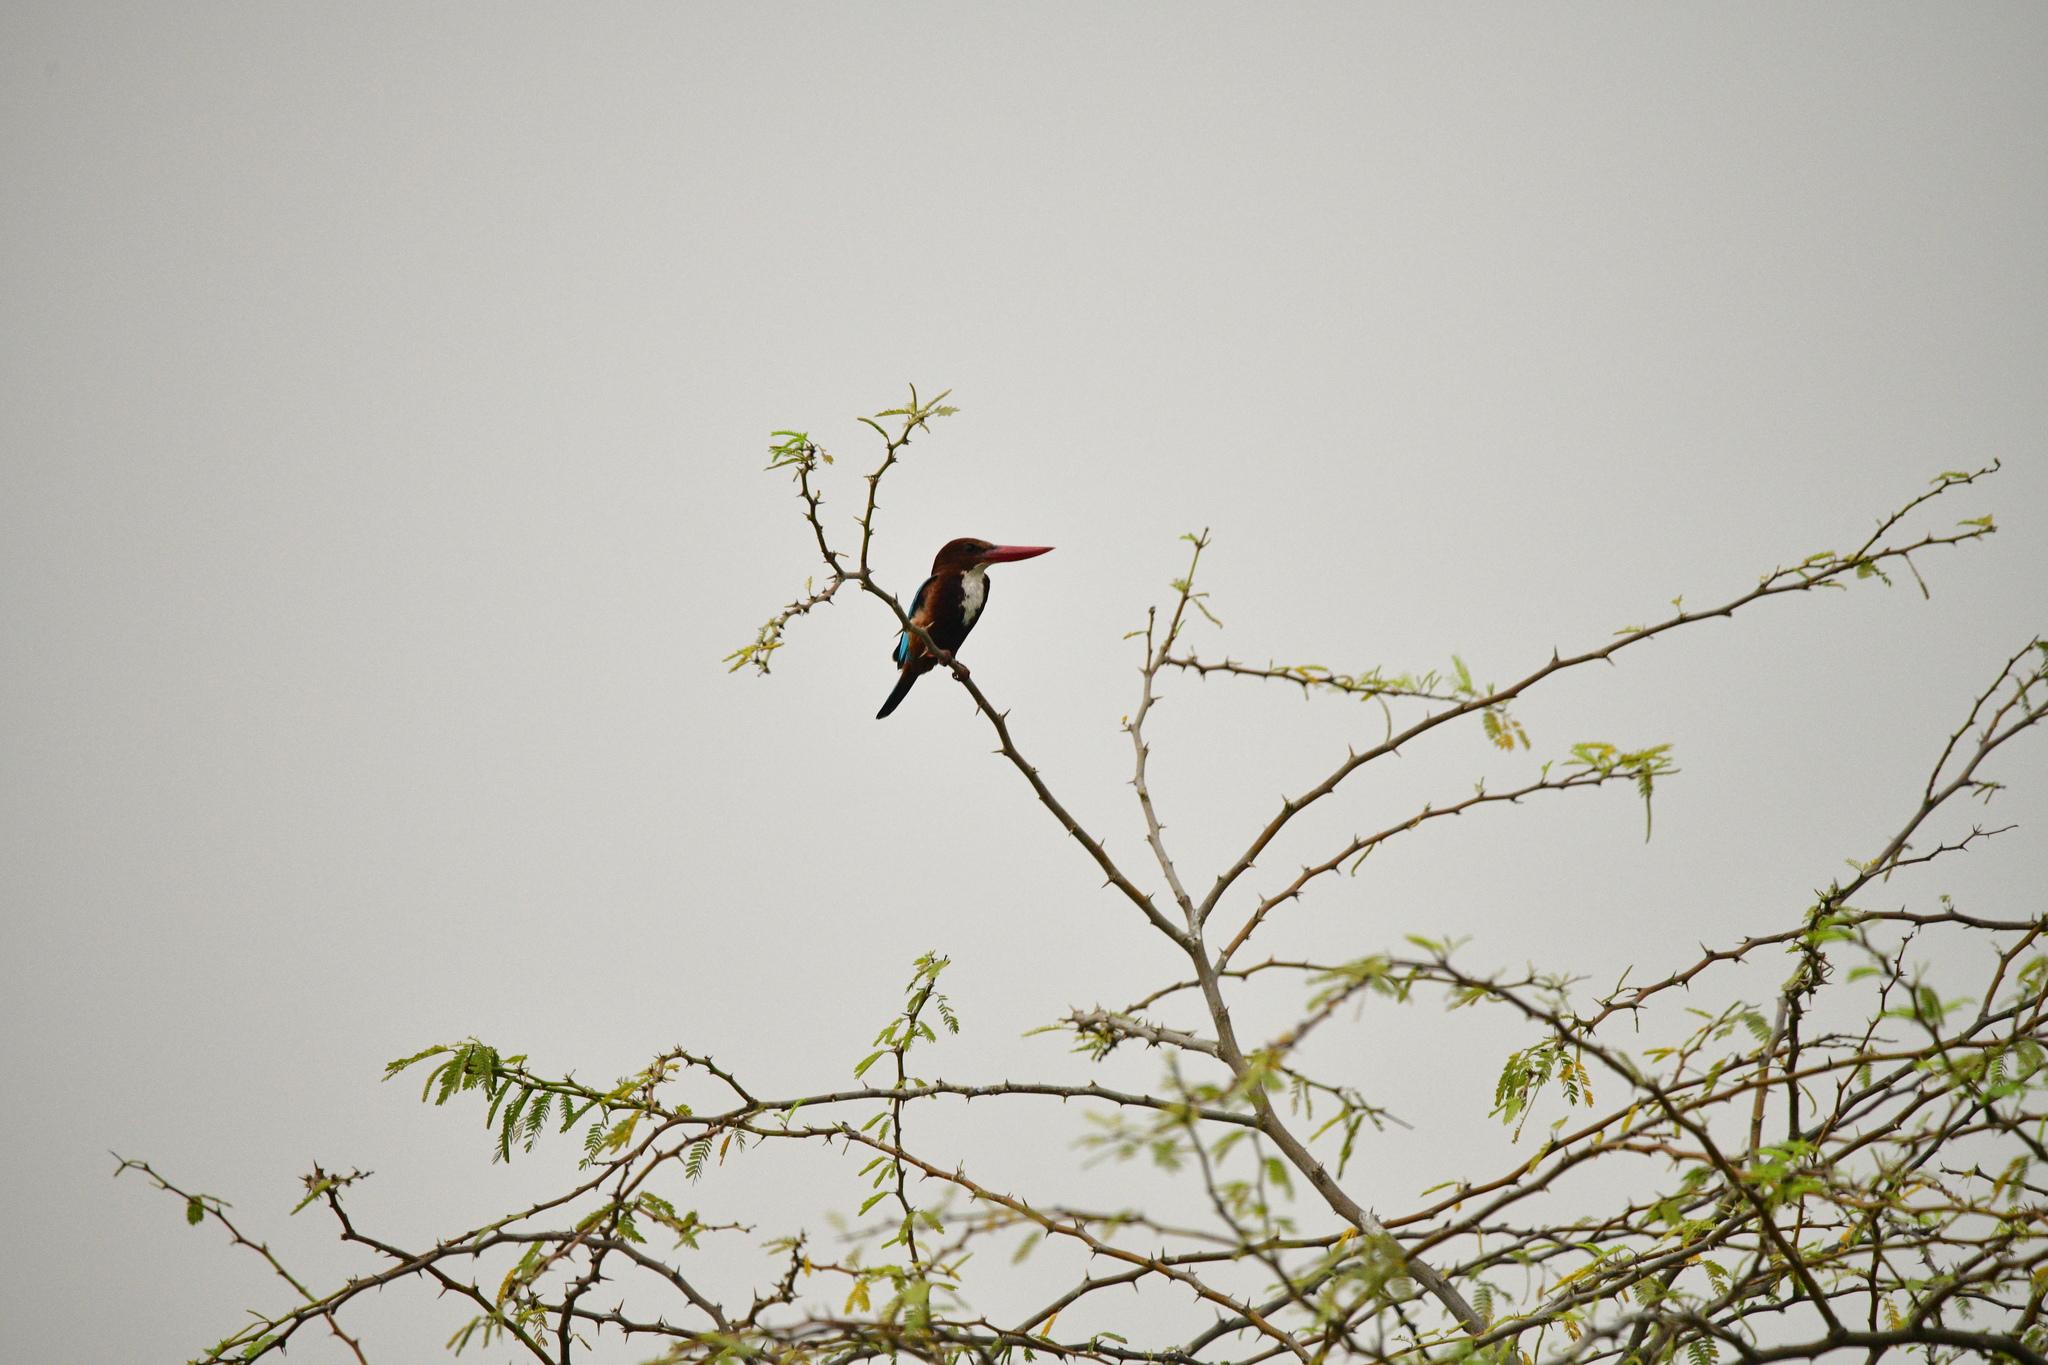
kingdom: Animalia
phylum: Chordata
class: Aves
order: Coraciiformes
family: Alcedinidae
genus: Halcyon
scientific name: Halcyon smyrnensis
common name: White-throated kingfisher
